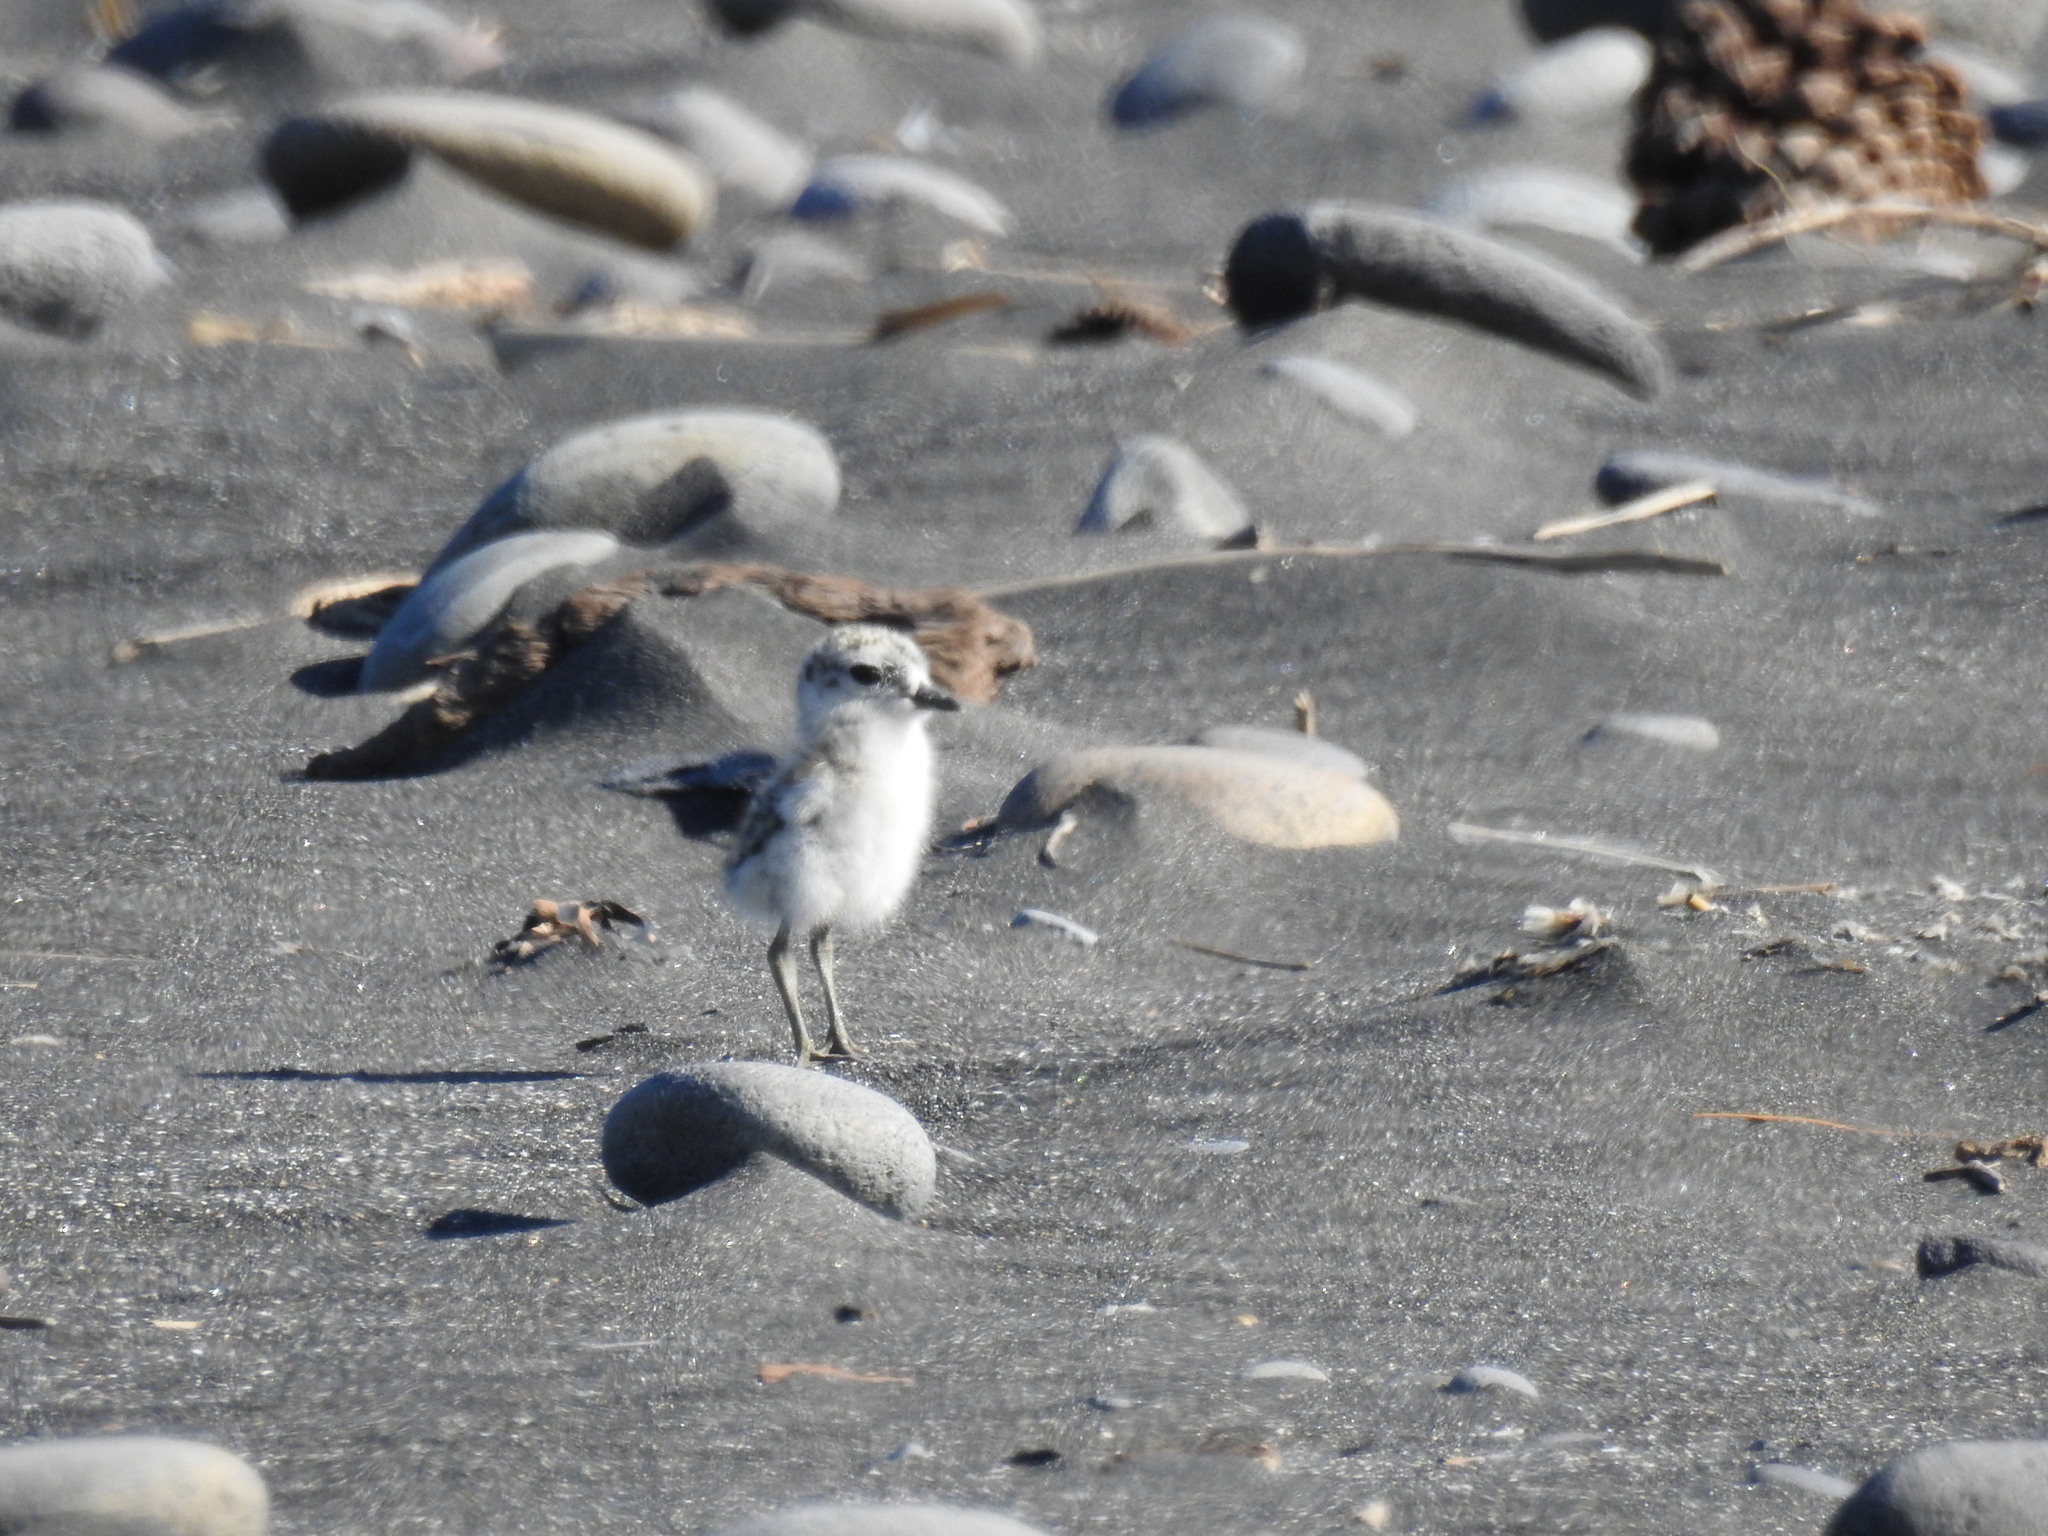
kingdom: Animalia
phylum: Chordata
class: Aves
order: Charadriiformes
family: Charadriidae
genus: Anarhynchus
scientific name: Anarhynchus
